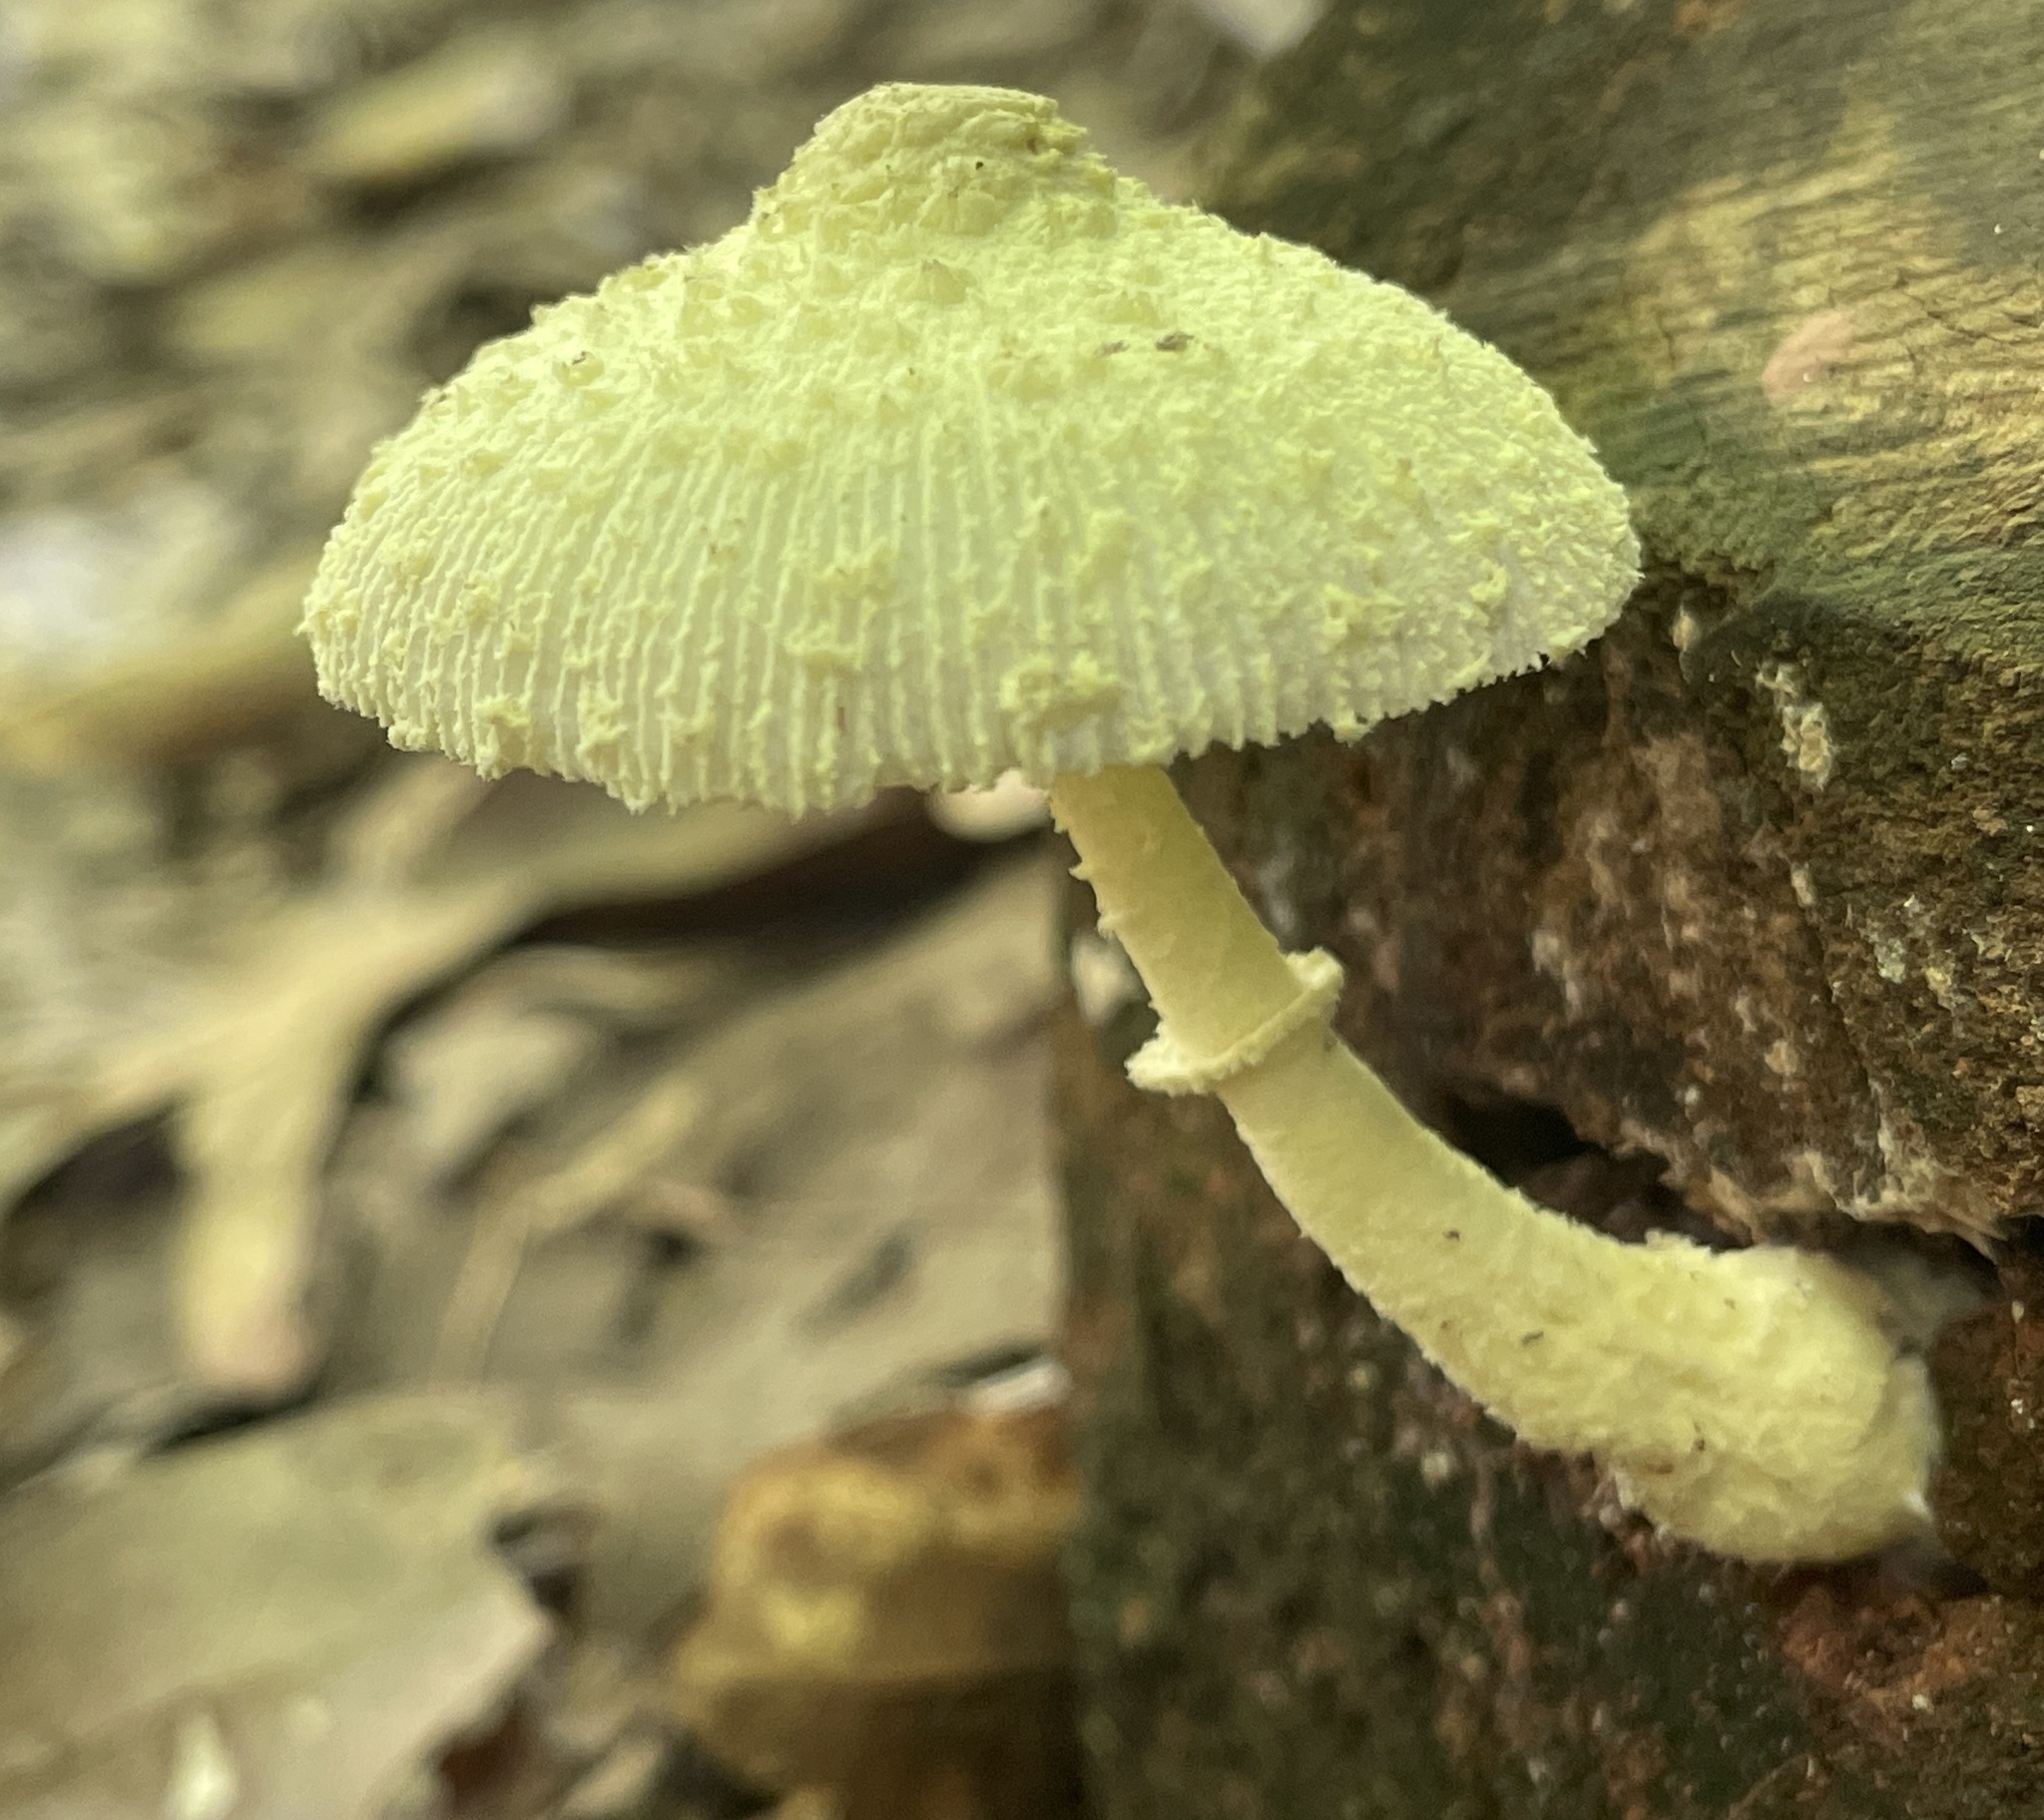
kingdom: Fungi
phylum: Basidiomycota
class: Agaricomycetes
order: Agaricales
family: Agaricaceae
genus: Leucocoprinus
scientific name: Leucocoprinus birnbaumii
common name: Plantpot dapperling
